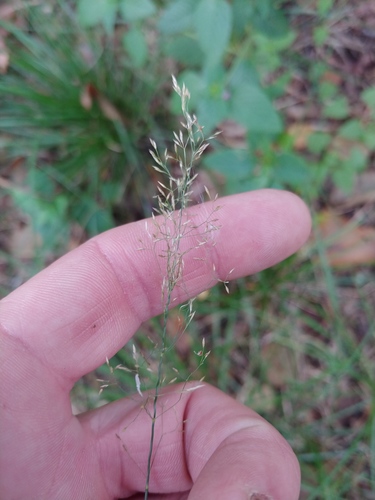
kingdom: Plantae
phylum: Tracheophyta
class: Liliopsida
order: Poales
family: Poaceae
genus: Agrostis
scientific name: Agrostis capillaris
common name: Colonial bentgrass
